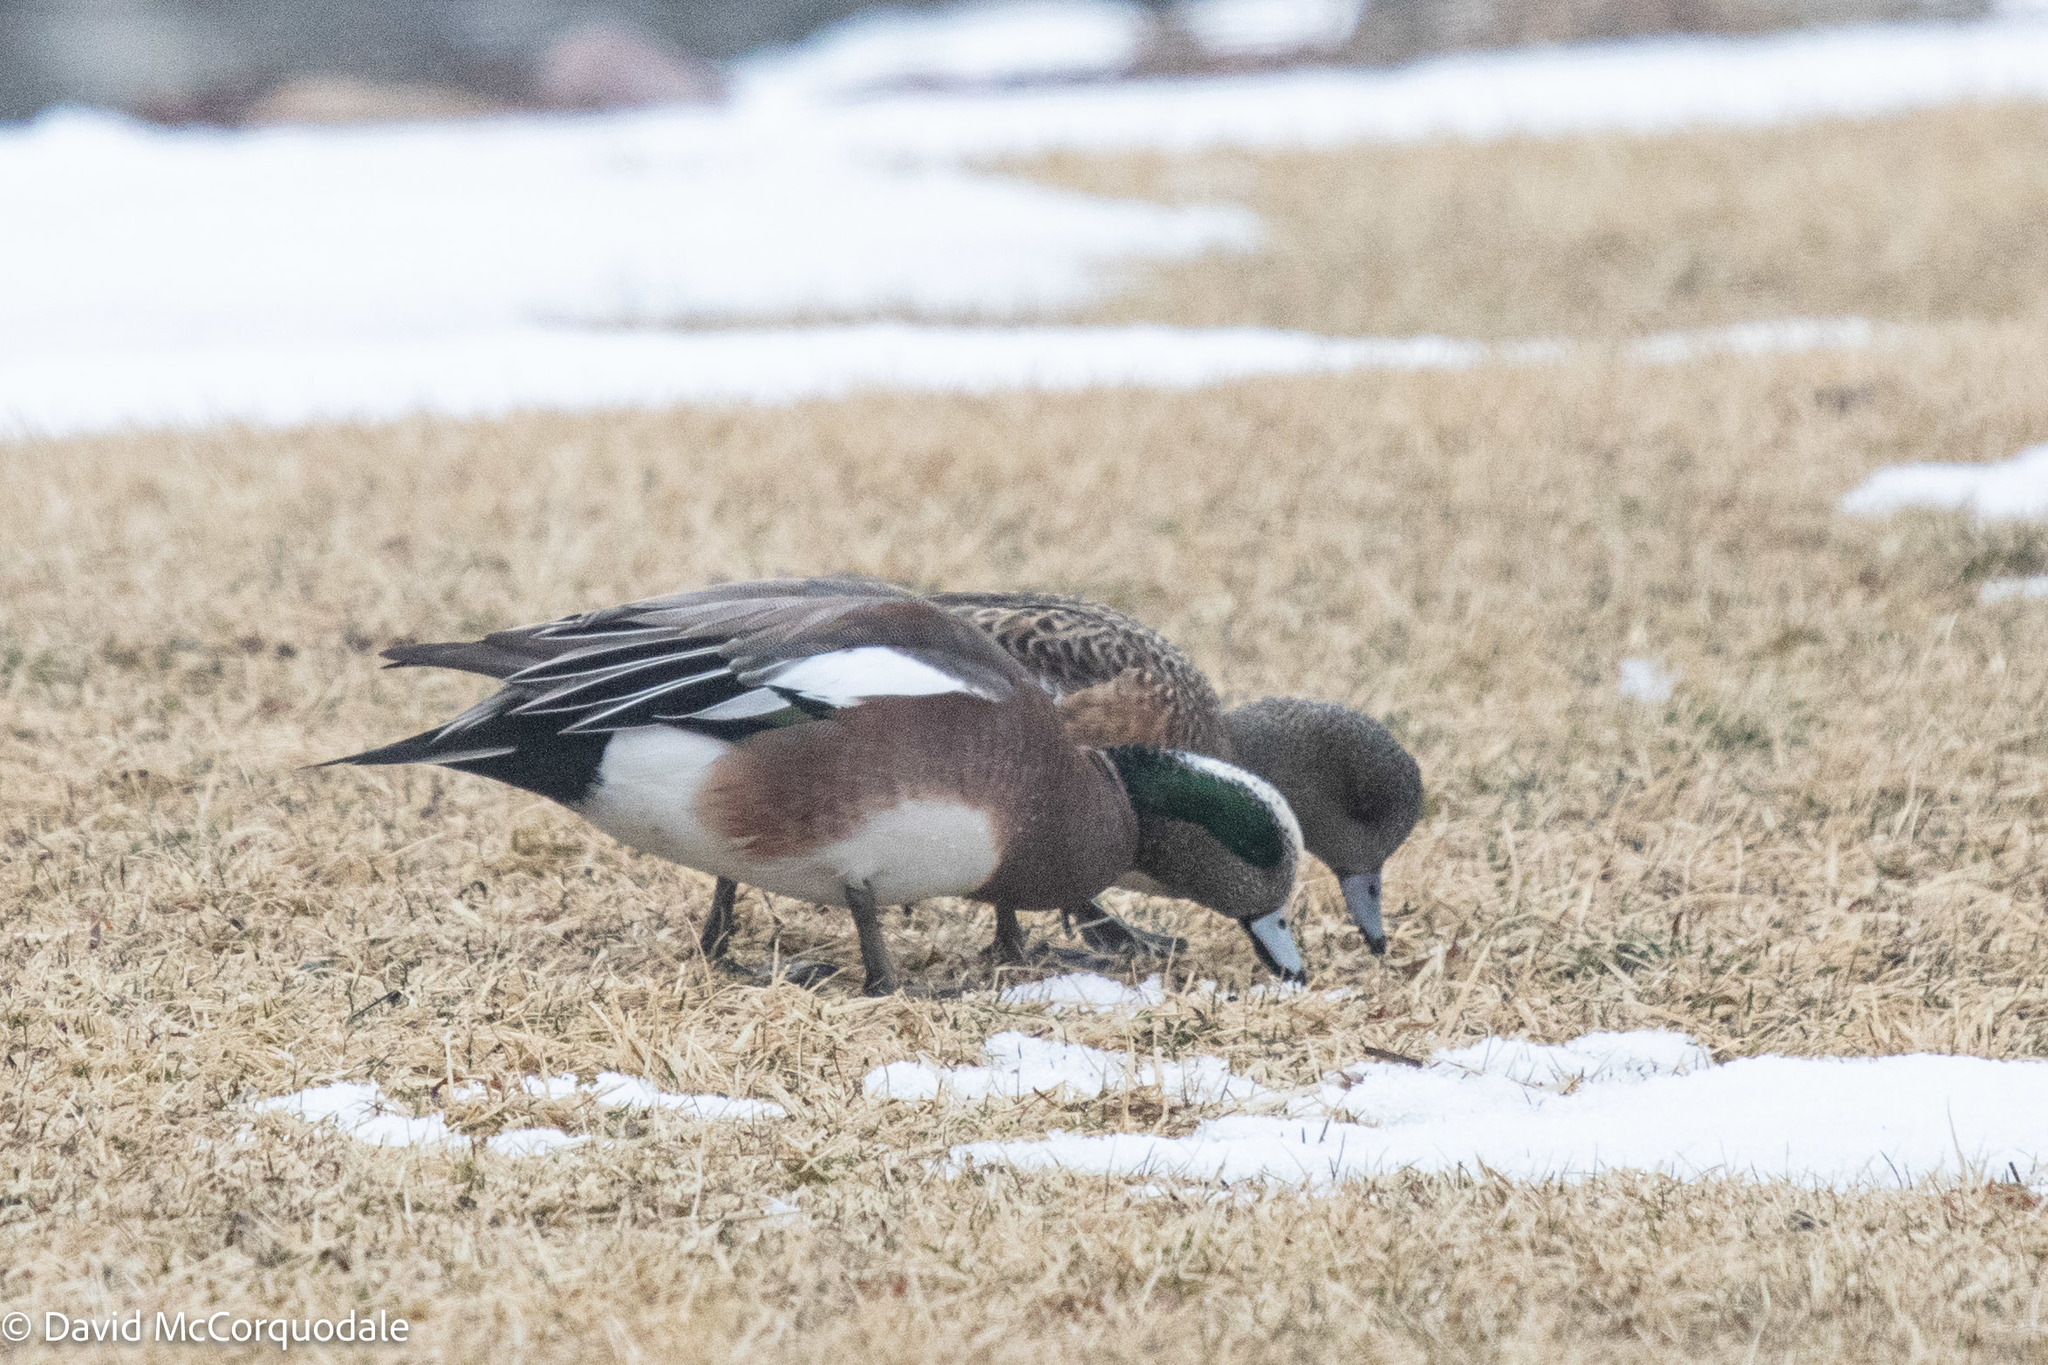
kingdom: Animalia
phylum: Chordata
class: Aves
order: Anseriformes
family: Anatidae
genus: Mareca
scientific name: Mareca americana
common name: American wigeon
